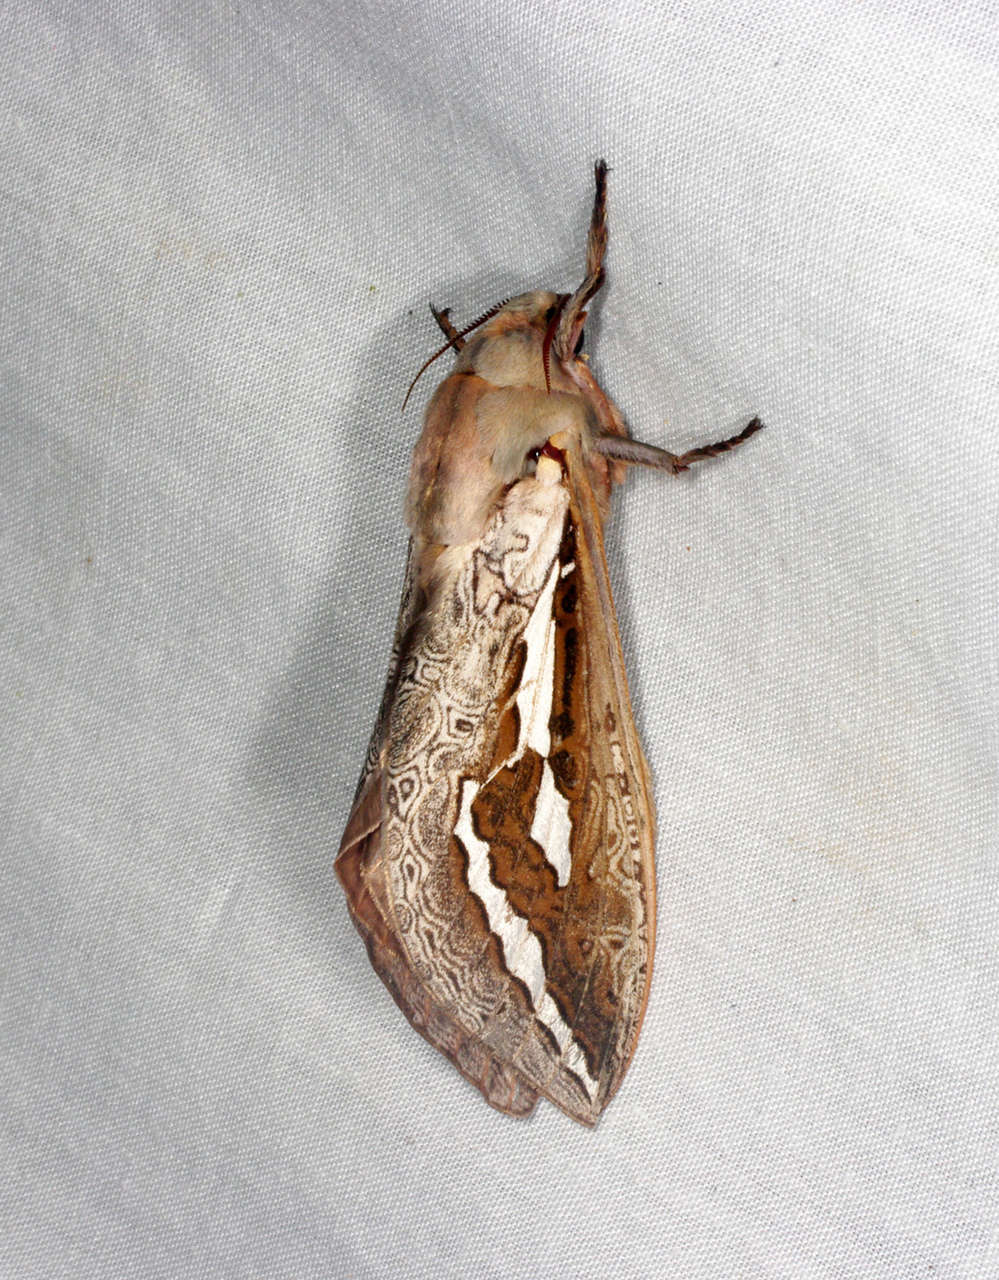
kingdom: Animalia
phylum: Arthropoda
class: Insecta
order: Lepidoptera
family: Hepialidae
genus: Abantiades
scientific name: Abantiades labyrinthicus
